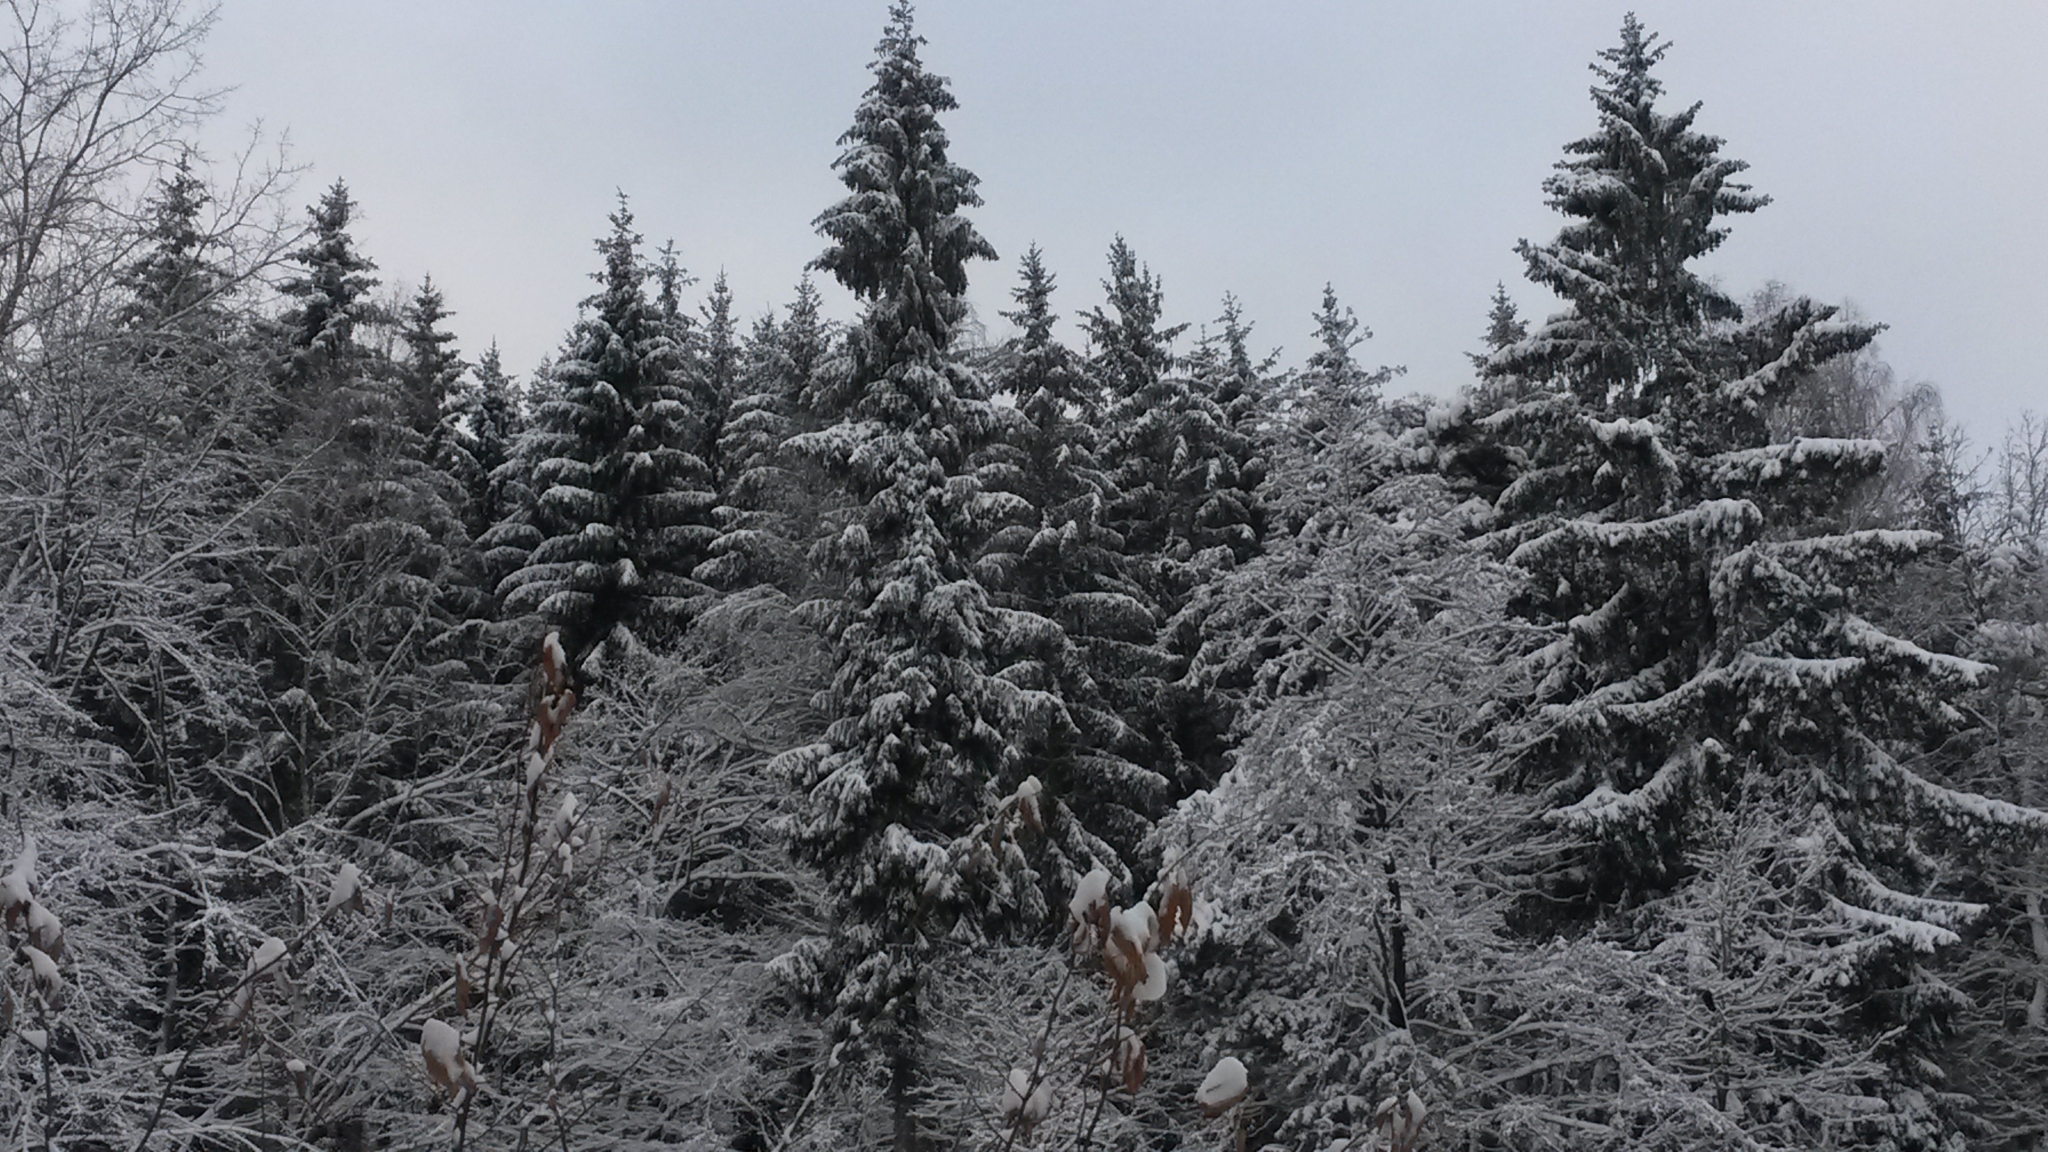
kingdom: Plantae
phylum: Tracheophyta
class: Pinopsida
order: Pinales
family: Pinaceae
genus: Picea
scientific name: Picea abies
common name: Norway spruce
